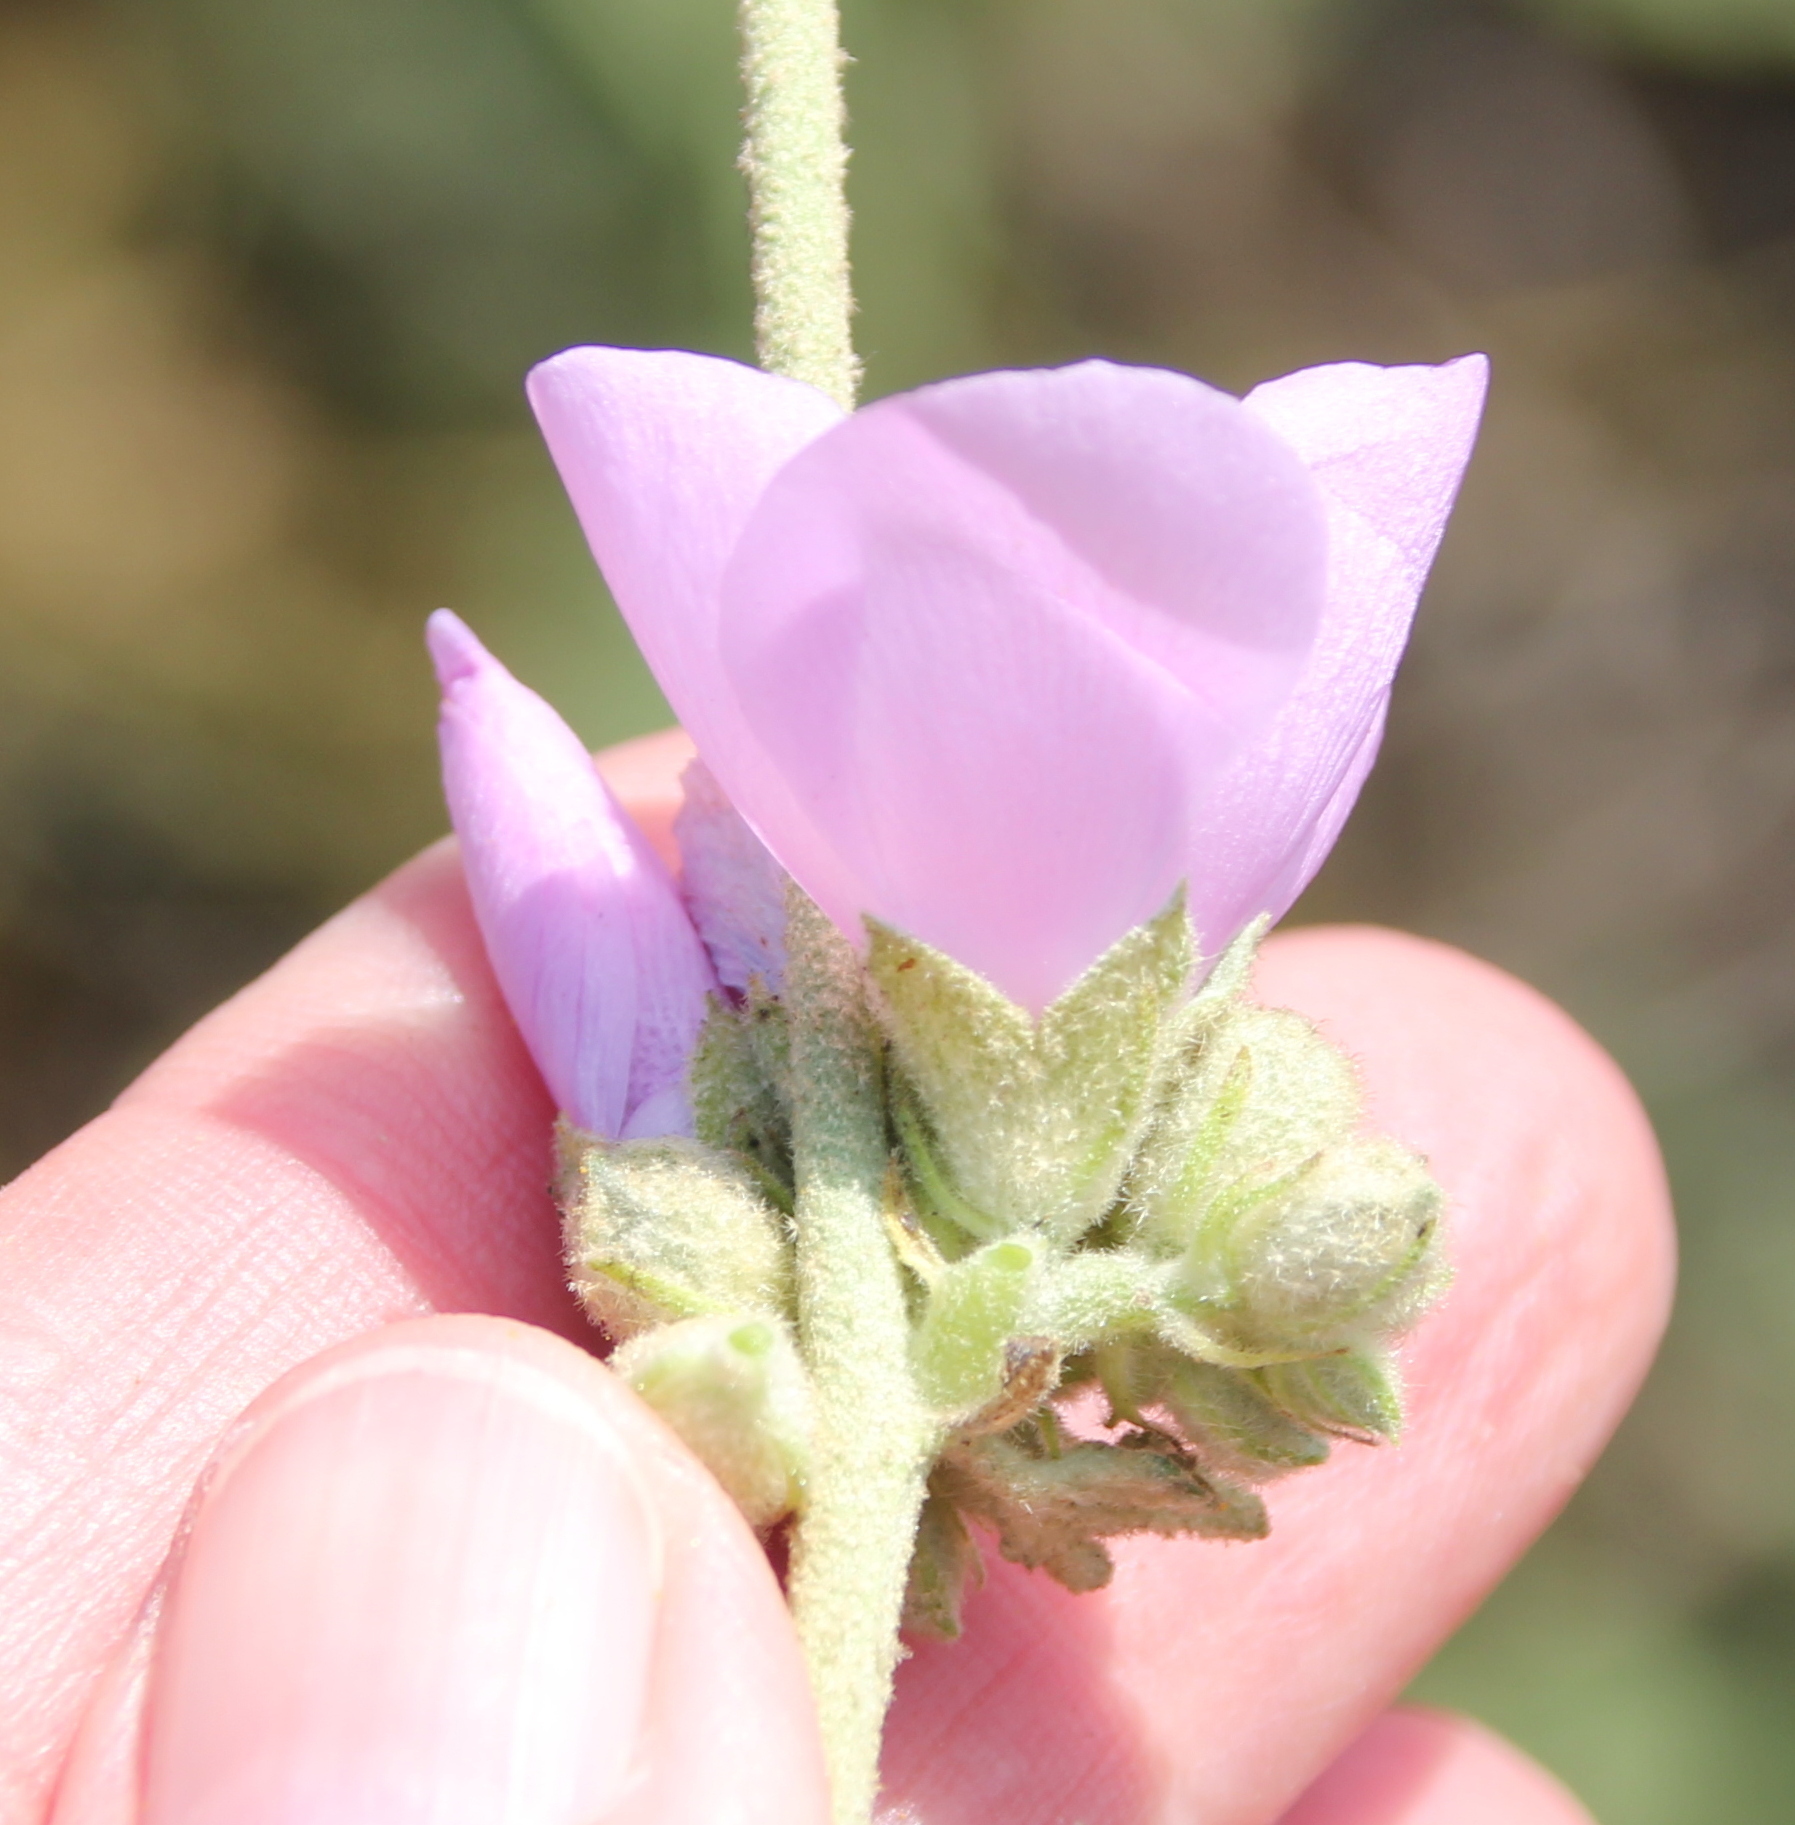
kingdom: Plantae
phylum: Tracheophyta
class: Magnoliopsida
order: Malvales
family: Malvaceae
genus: Malacothamnus
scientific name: Malacothamnus fasciculatus
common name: Sant cruz island bush-mallow
